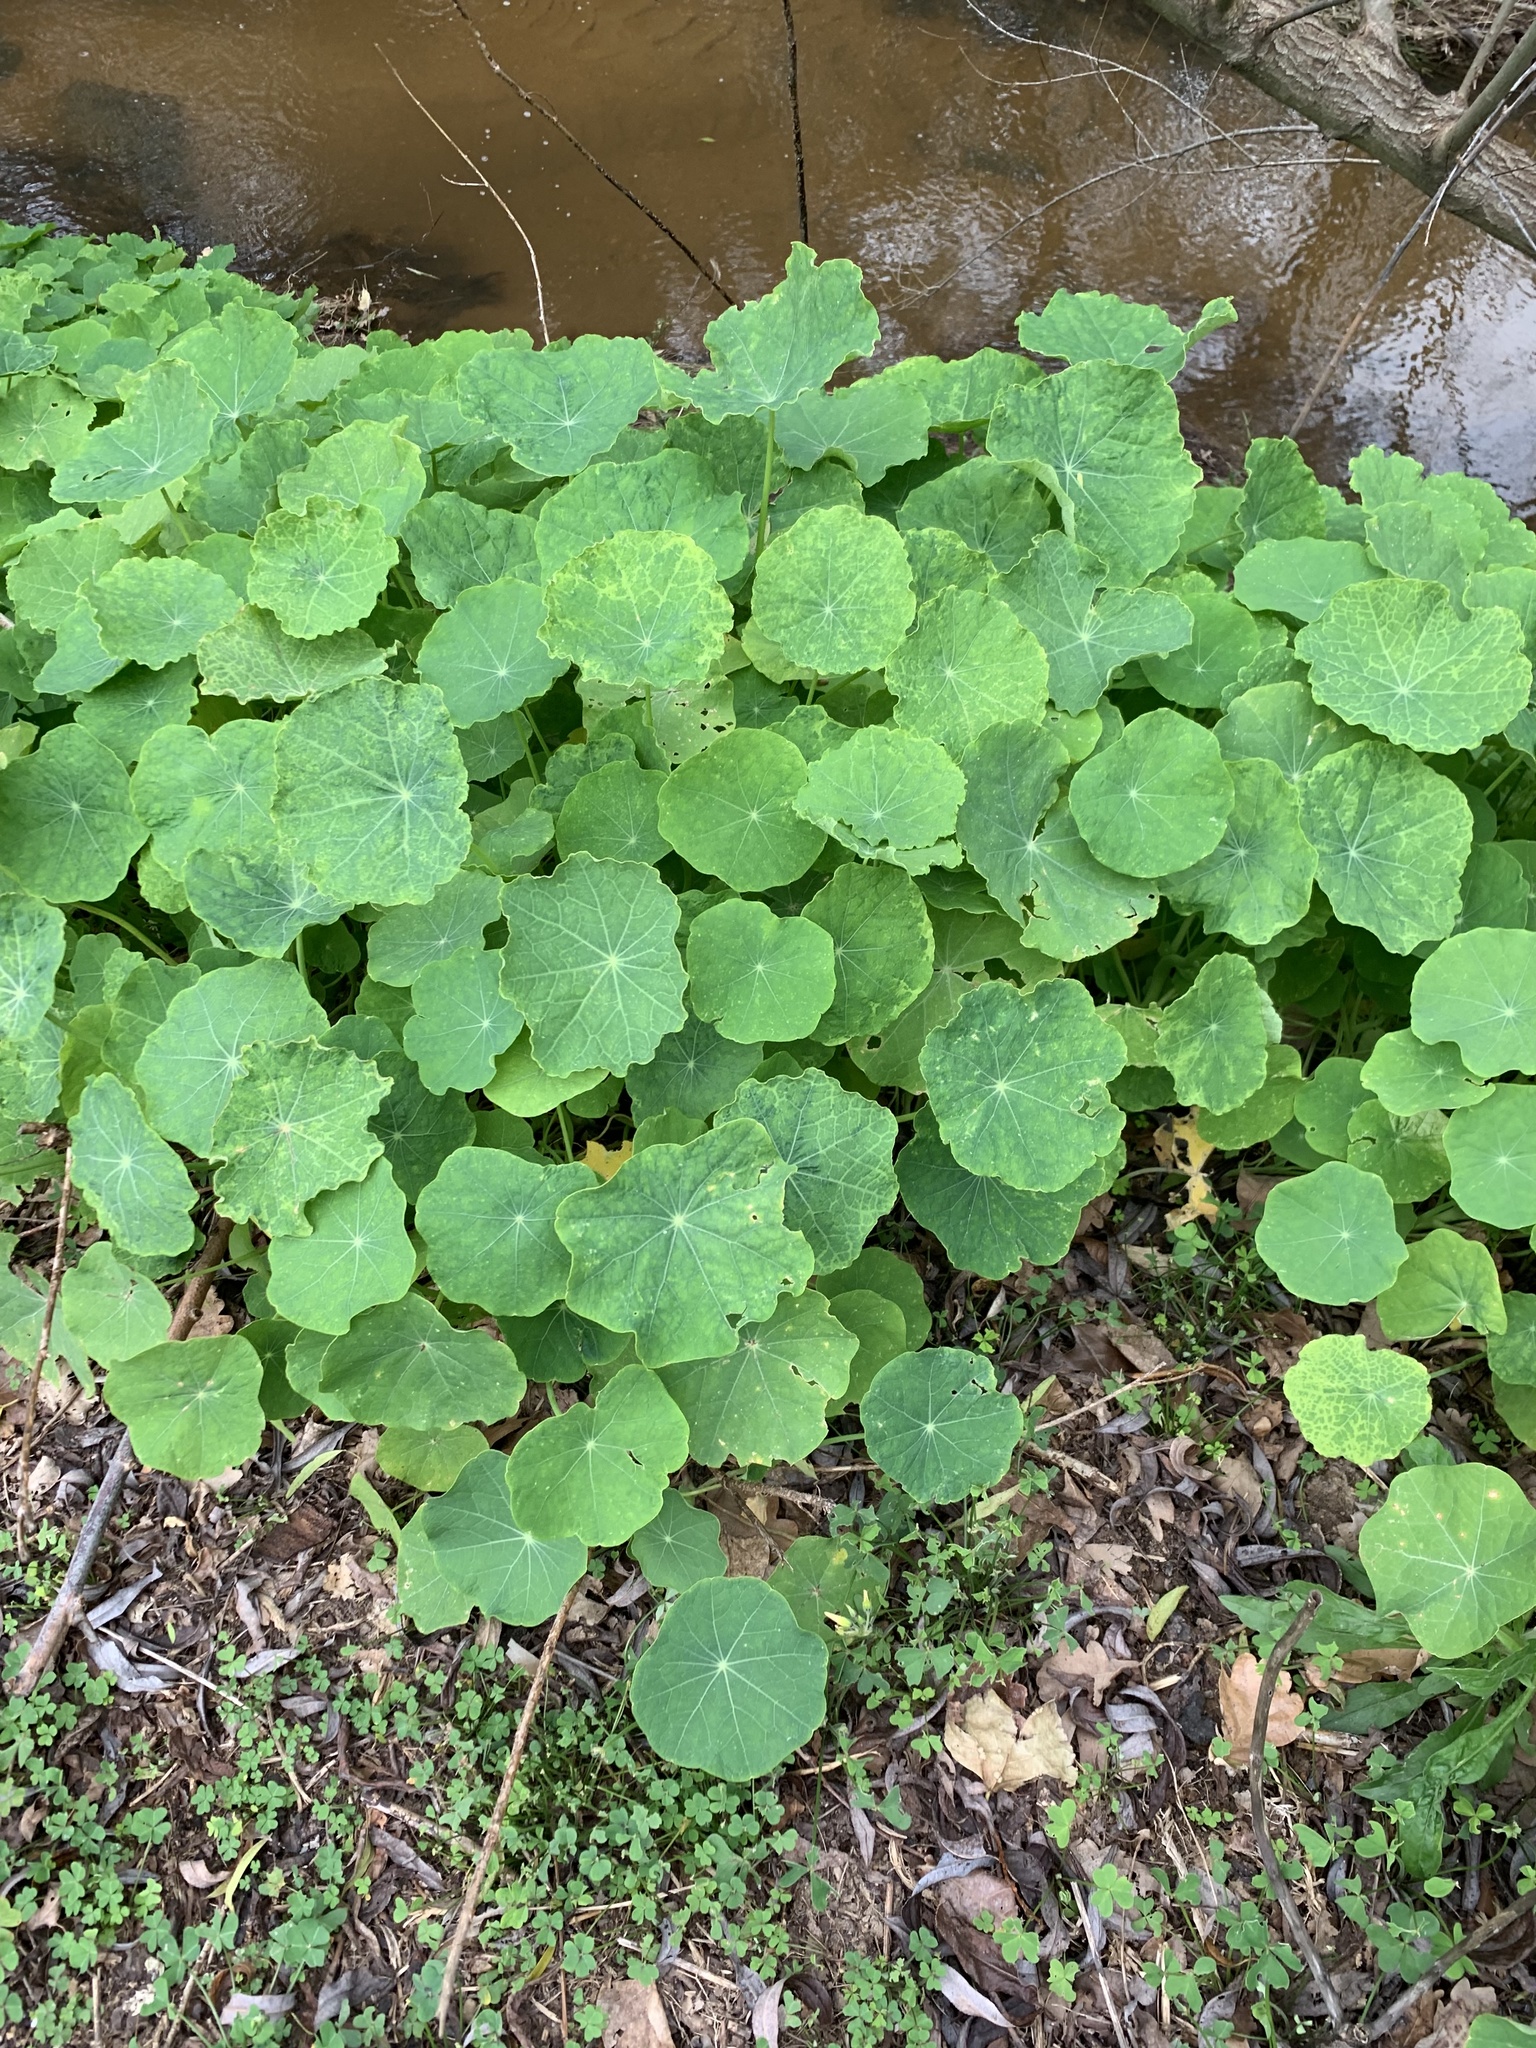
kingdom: Plantae
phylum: Tracheophyta
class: Magnoliopsida
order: Brassicales
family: Tropaeolaceae
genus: Tropaeolum
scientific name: Tropaeolum majus
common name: Nasturtium
